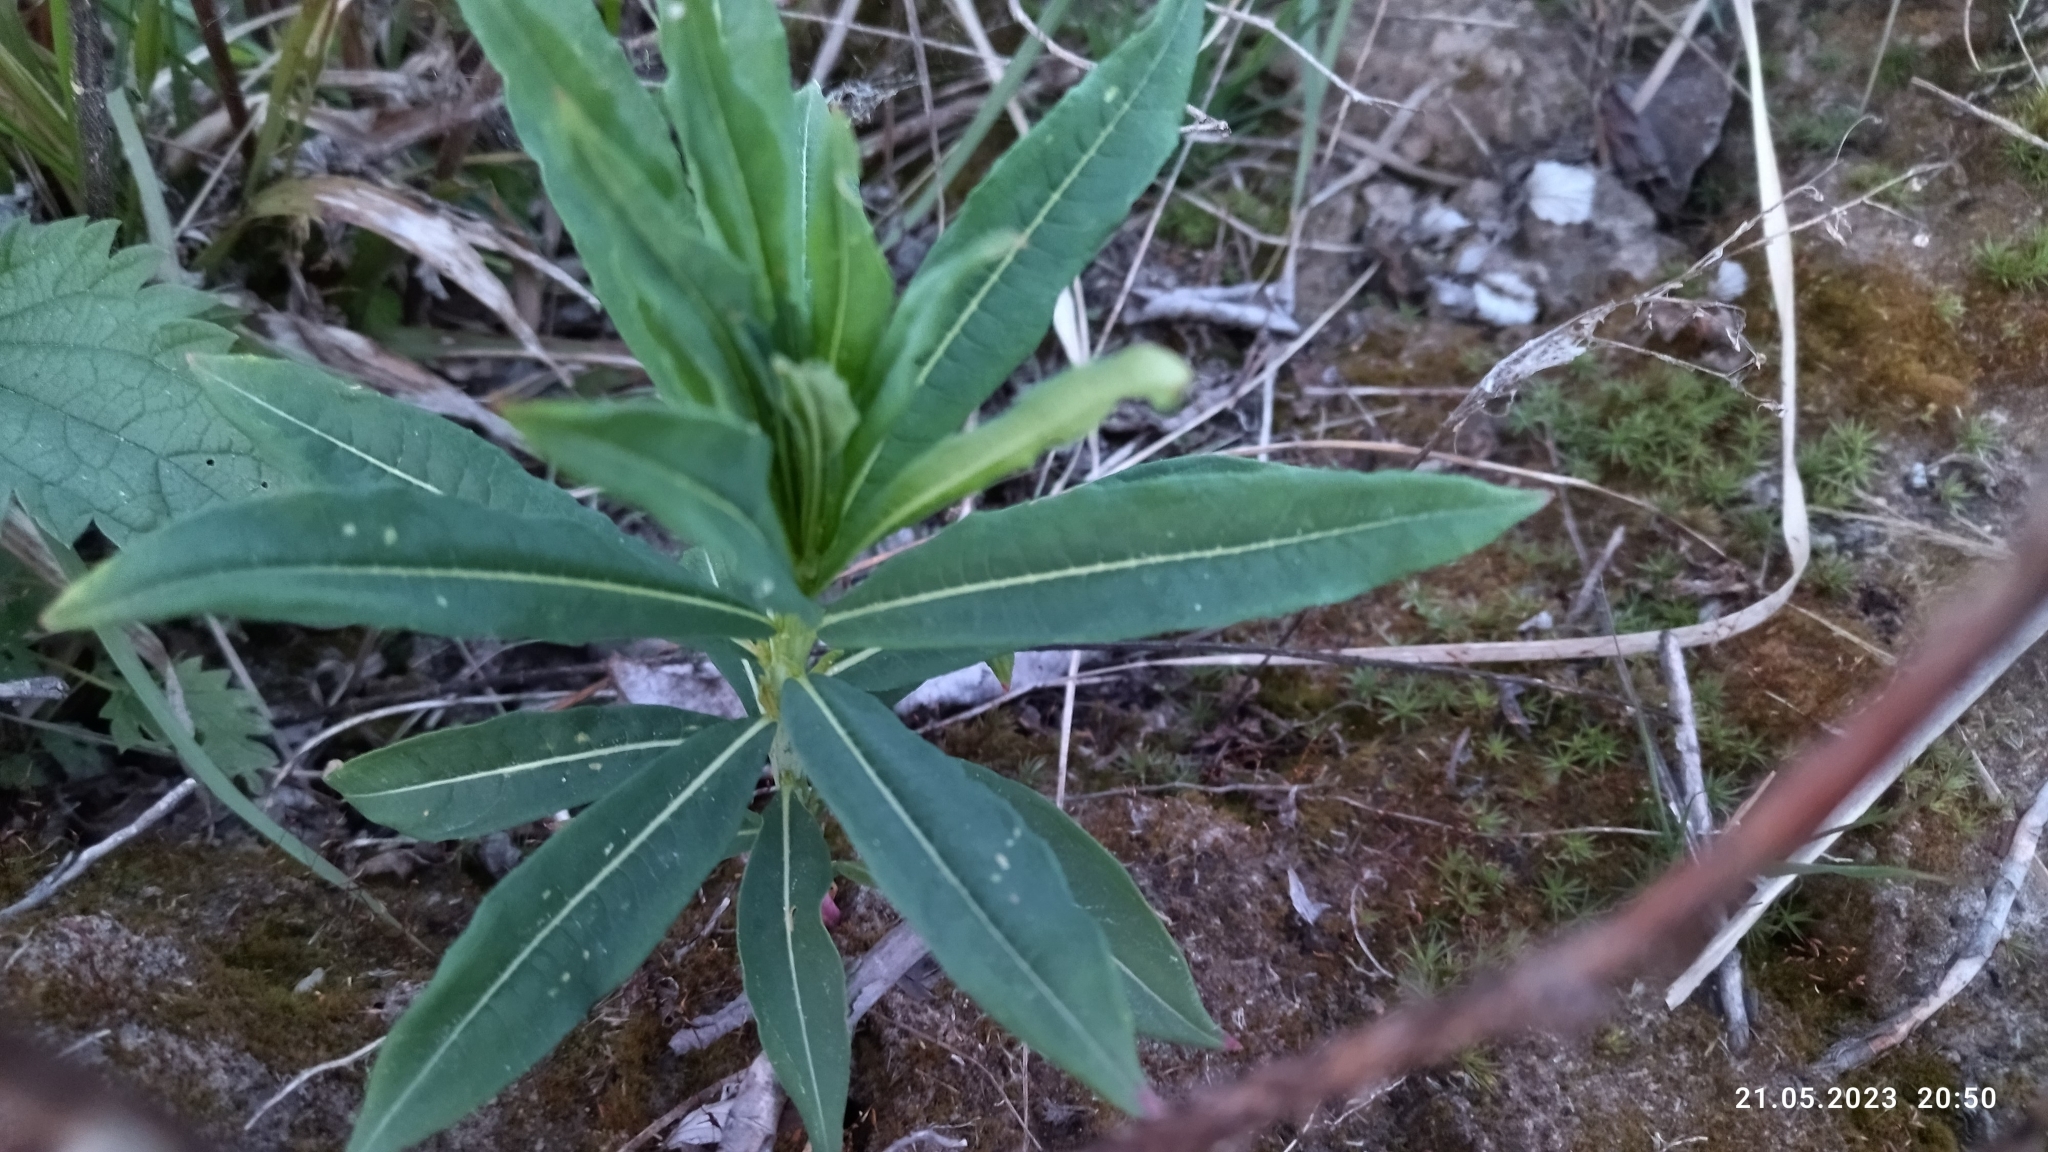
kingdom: Plantae
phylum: Tracheophyta
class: Magnoliopsida
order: Myrtales
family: Onagraceae
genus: Chamaenerion
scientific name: Chamaenerion angustifolium
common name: Fireweed
